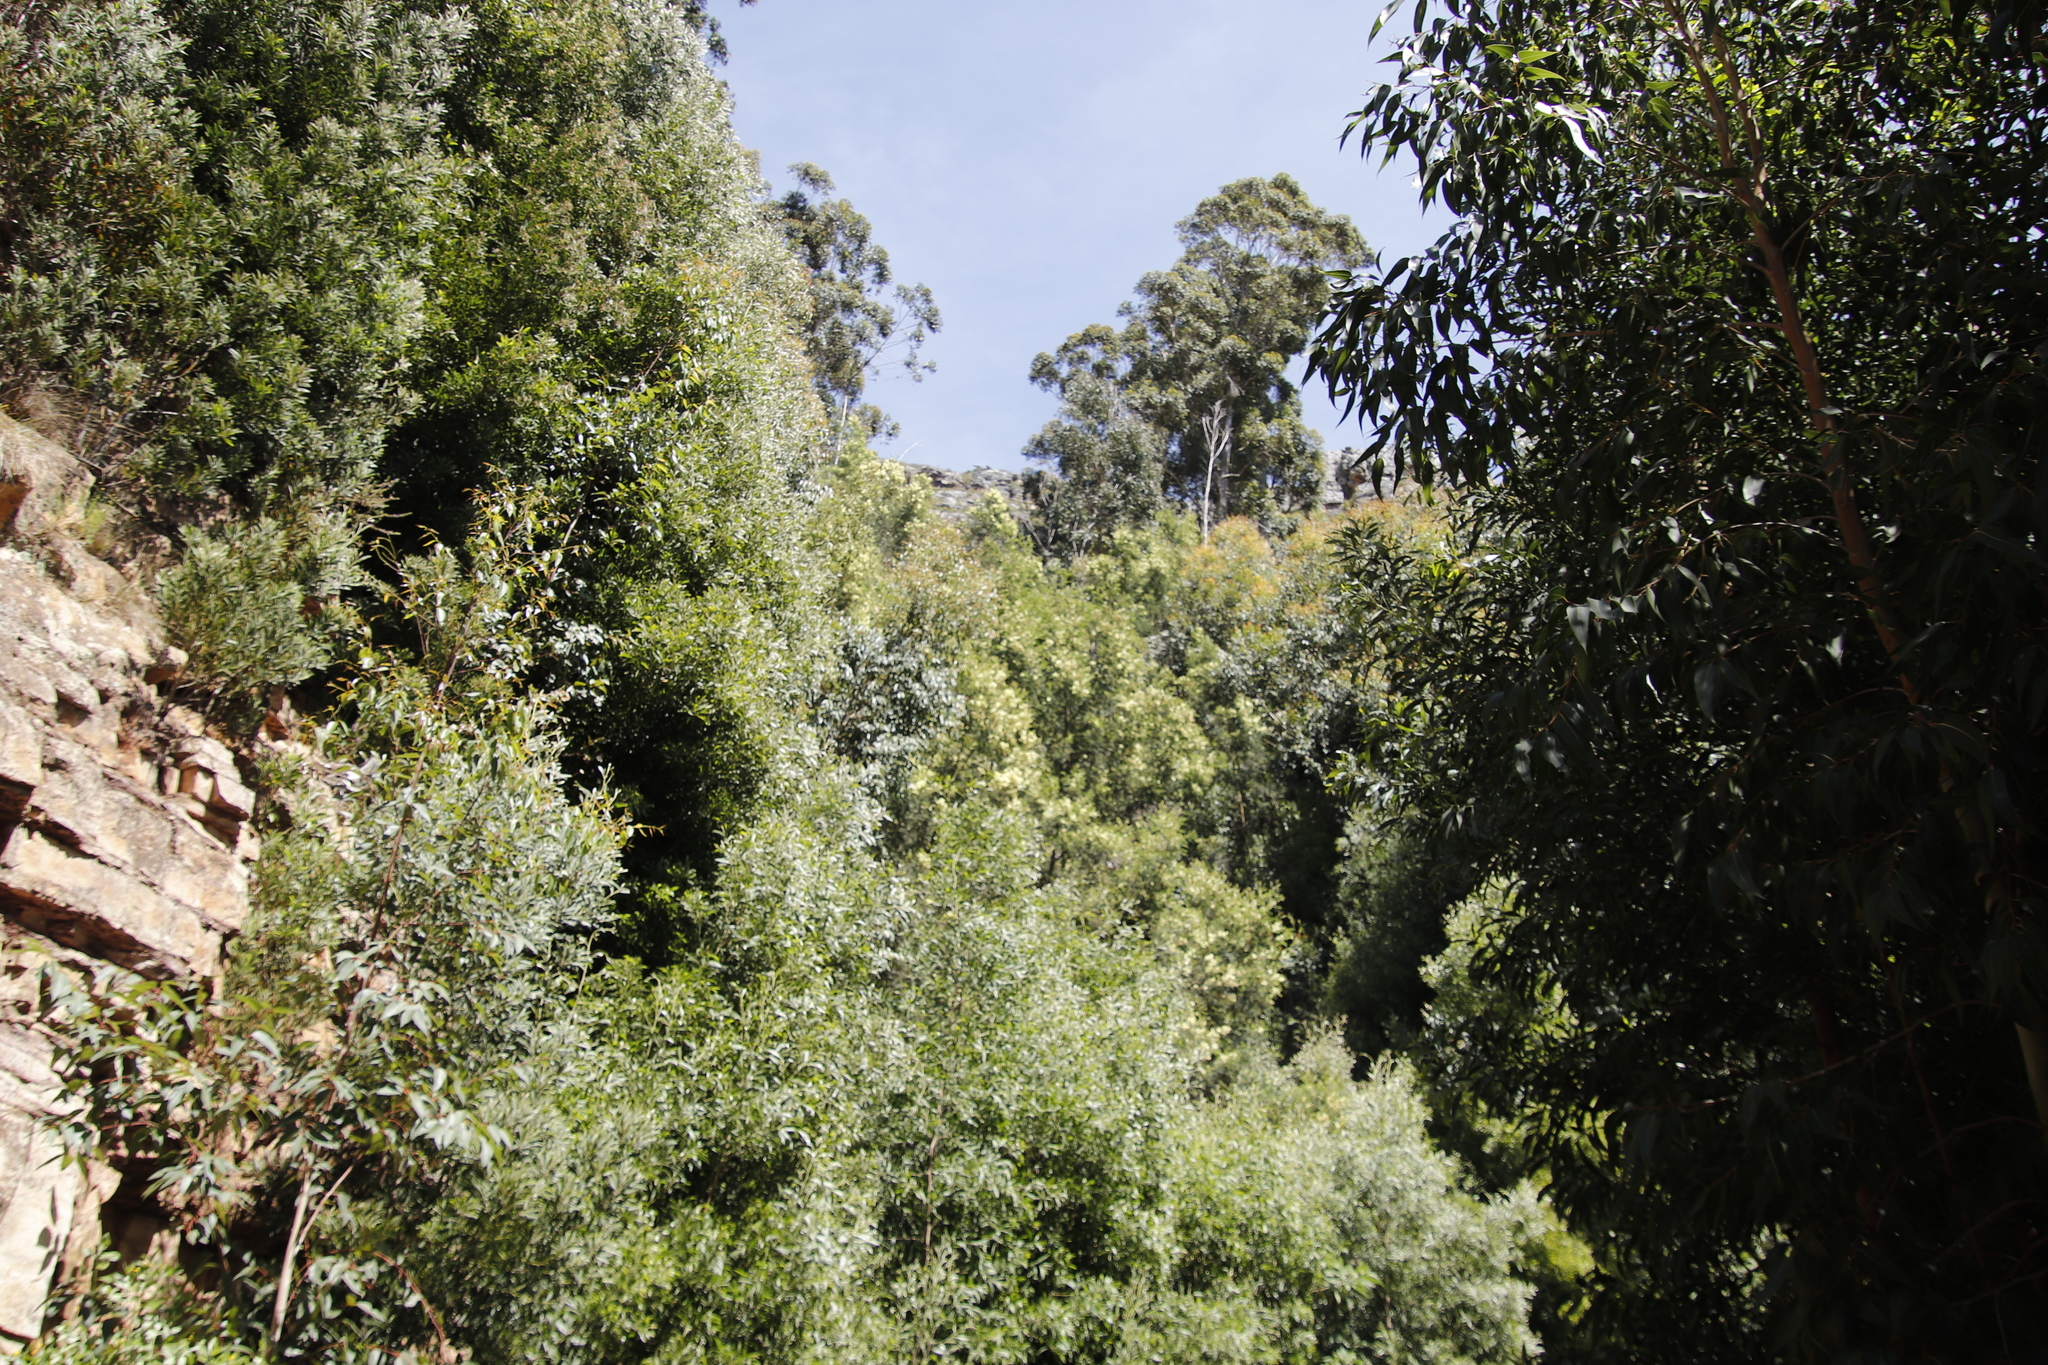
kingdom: Plantae
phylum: Tracheophyta
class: Magnoliopsida
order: Fabales
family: Fabaceae
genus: Acacia
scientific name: Acacia mearnsii
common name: Black wattle
